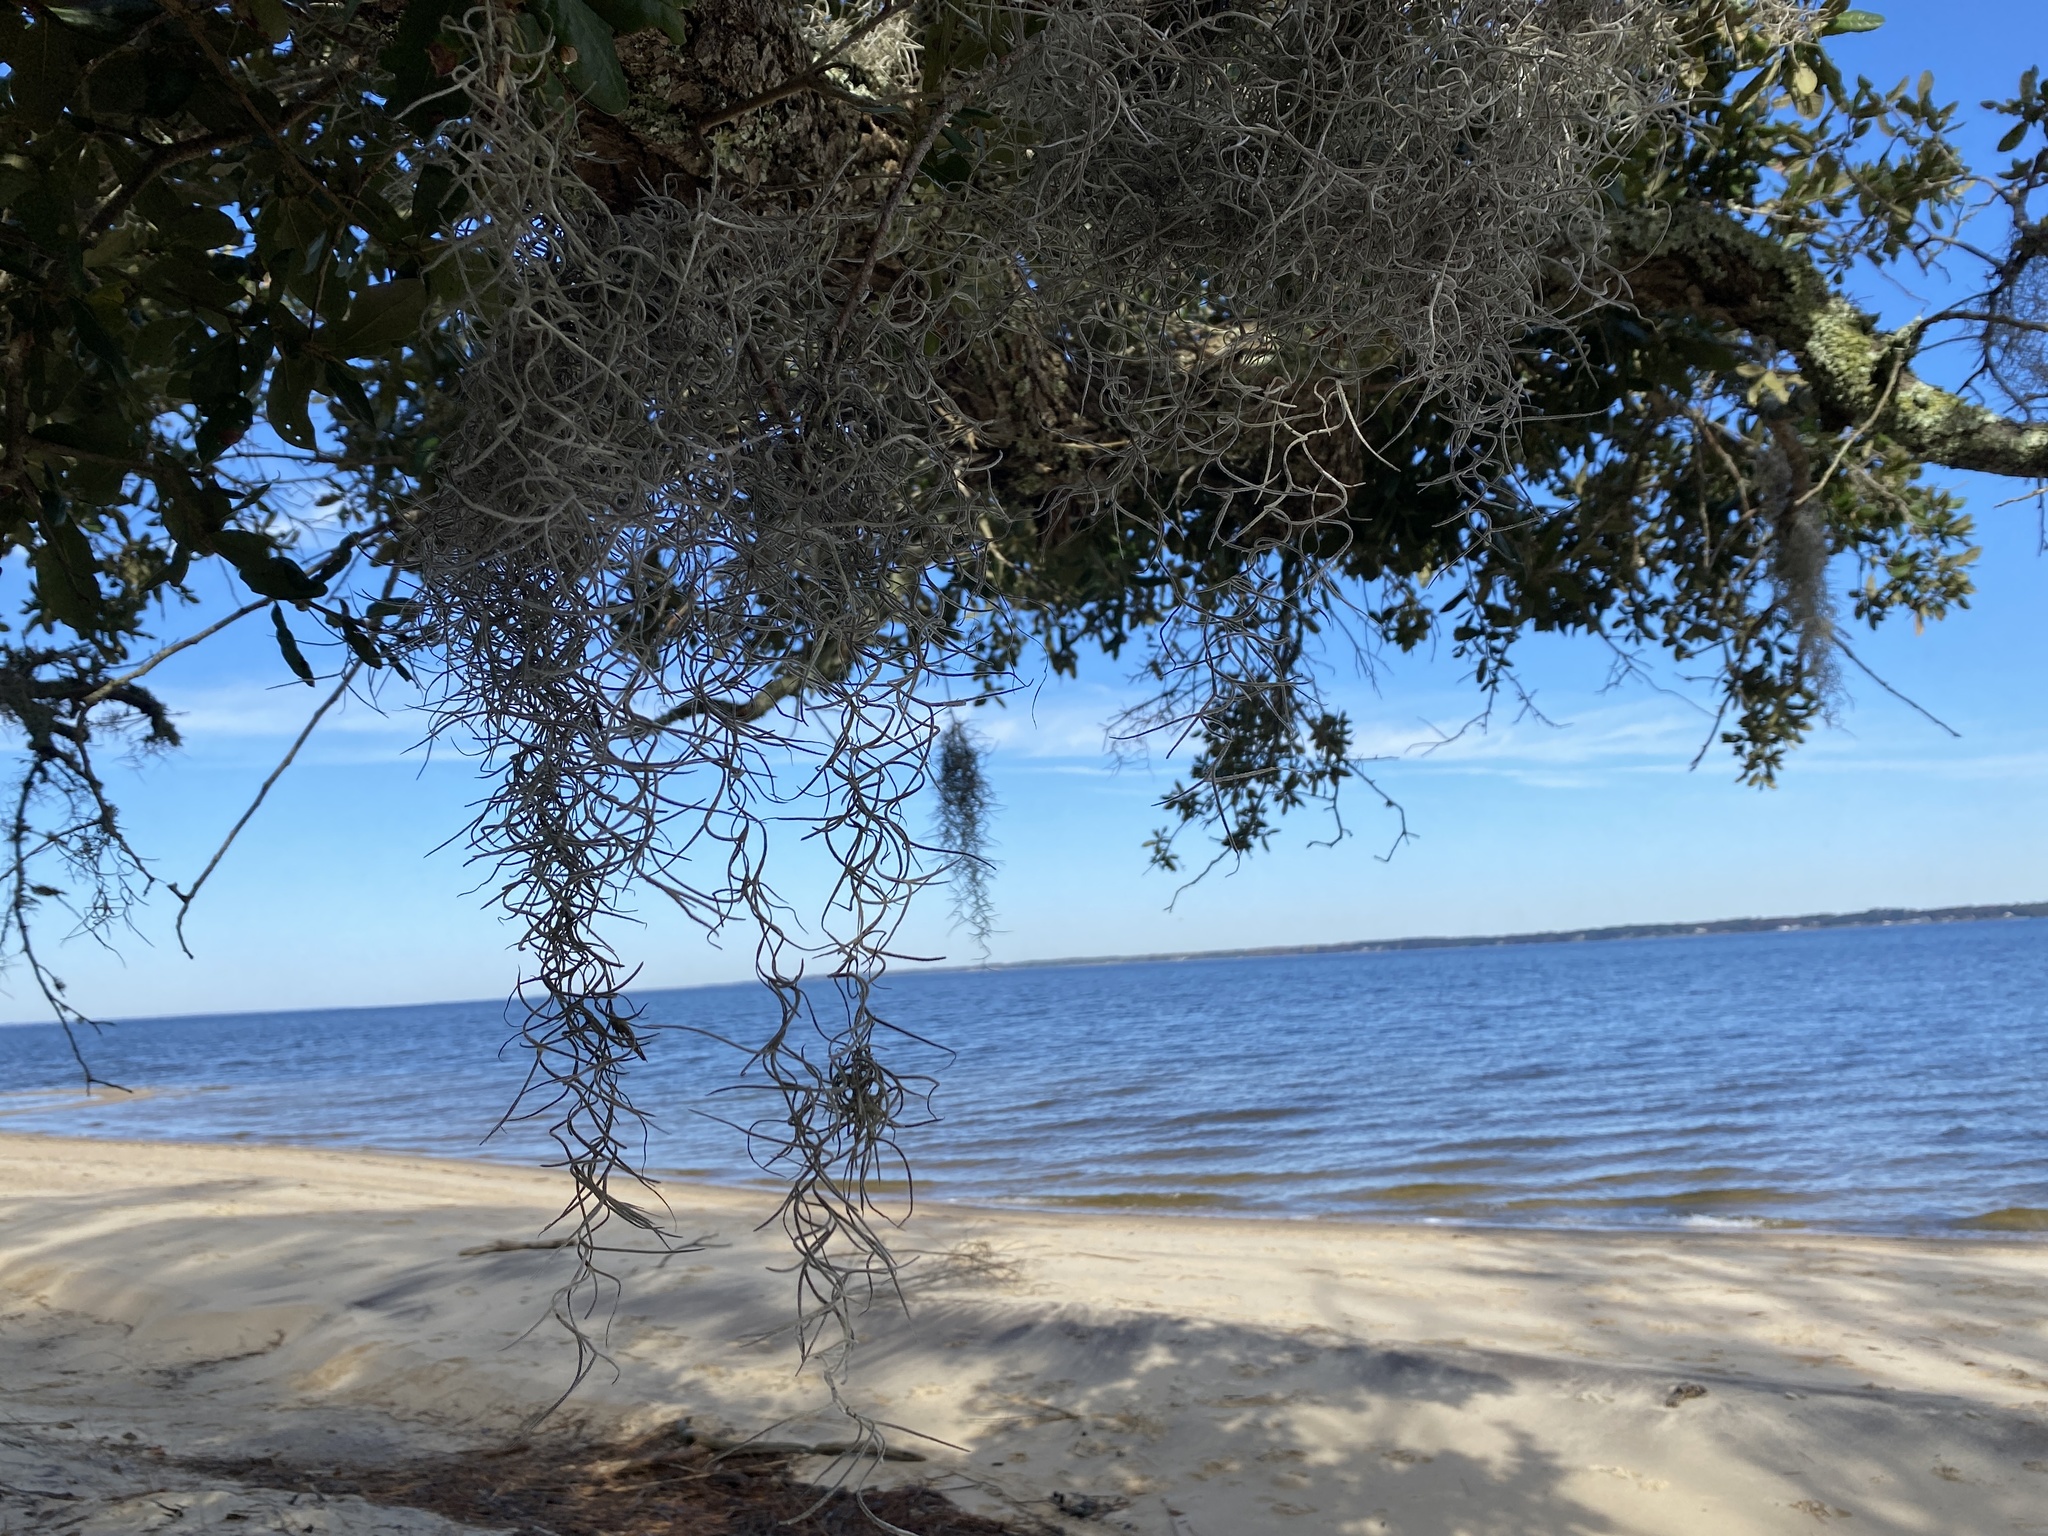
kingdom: Plantae
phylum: Tracheophyta
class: Liliopsida
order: Poales
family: Bromeliaceae
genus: Tillandsia
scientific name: Tillandsia usneoides
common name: Spanish moss
